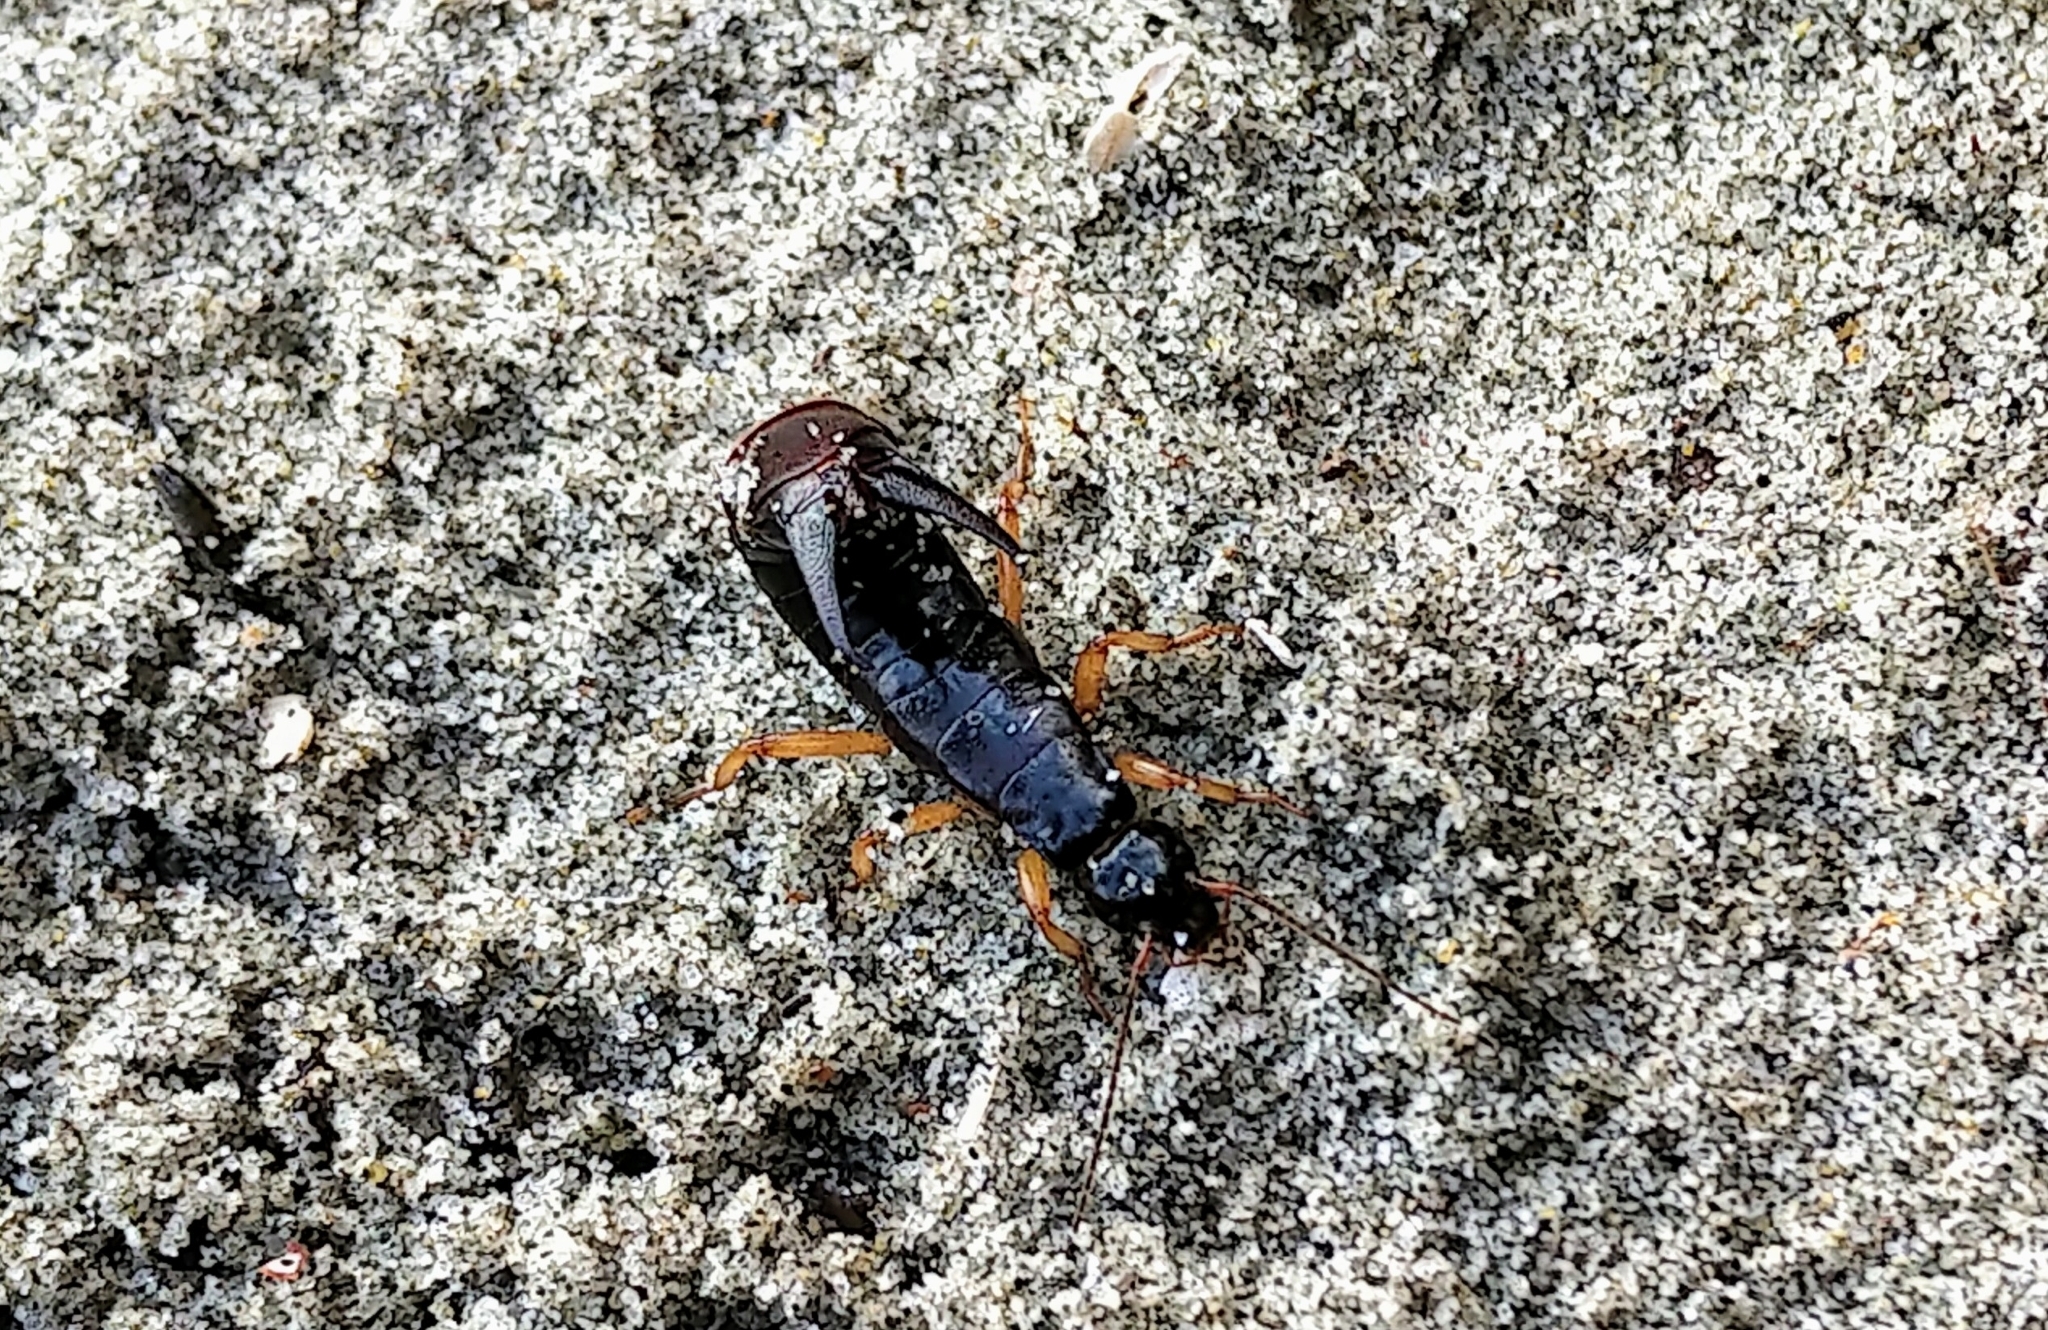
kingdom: Animalia
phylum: Arthropoda
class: Insecta
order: Dermaptera
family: Anisolabididae
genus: Anisolabis
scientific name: Anisolabis maritima
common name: Maritime earwig
